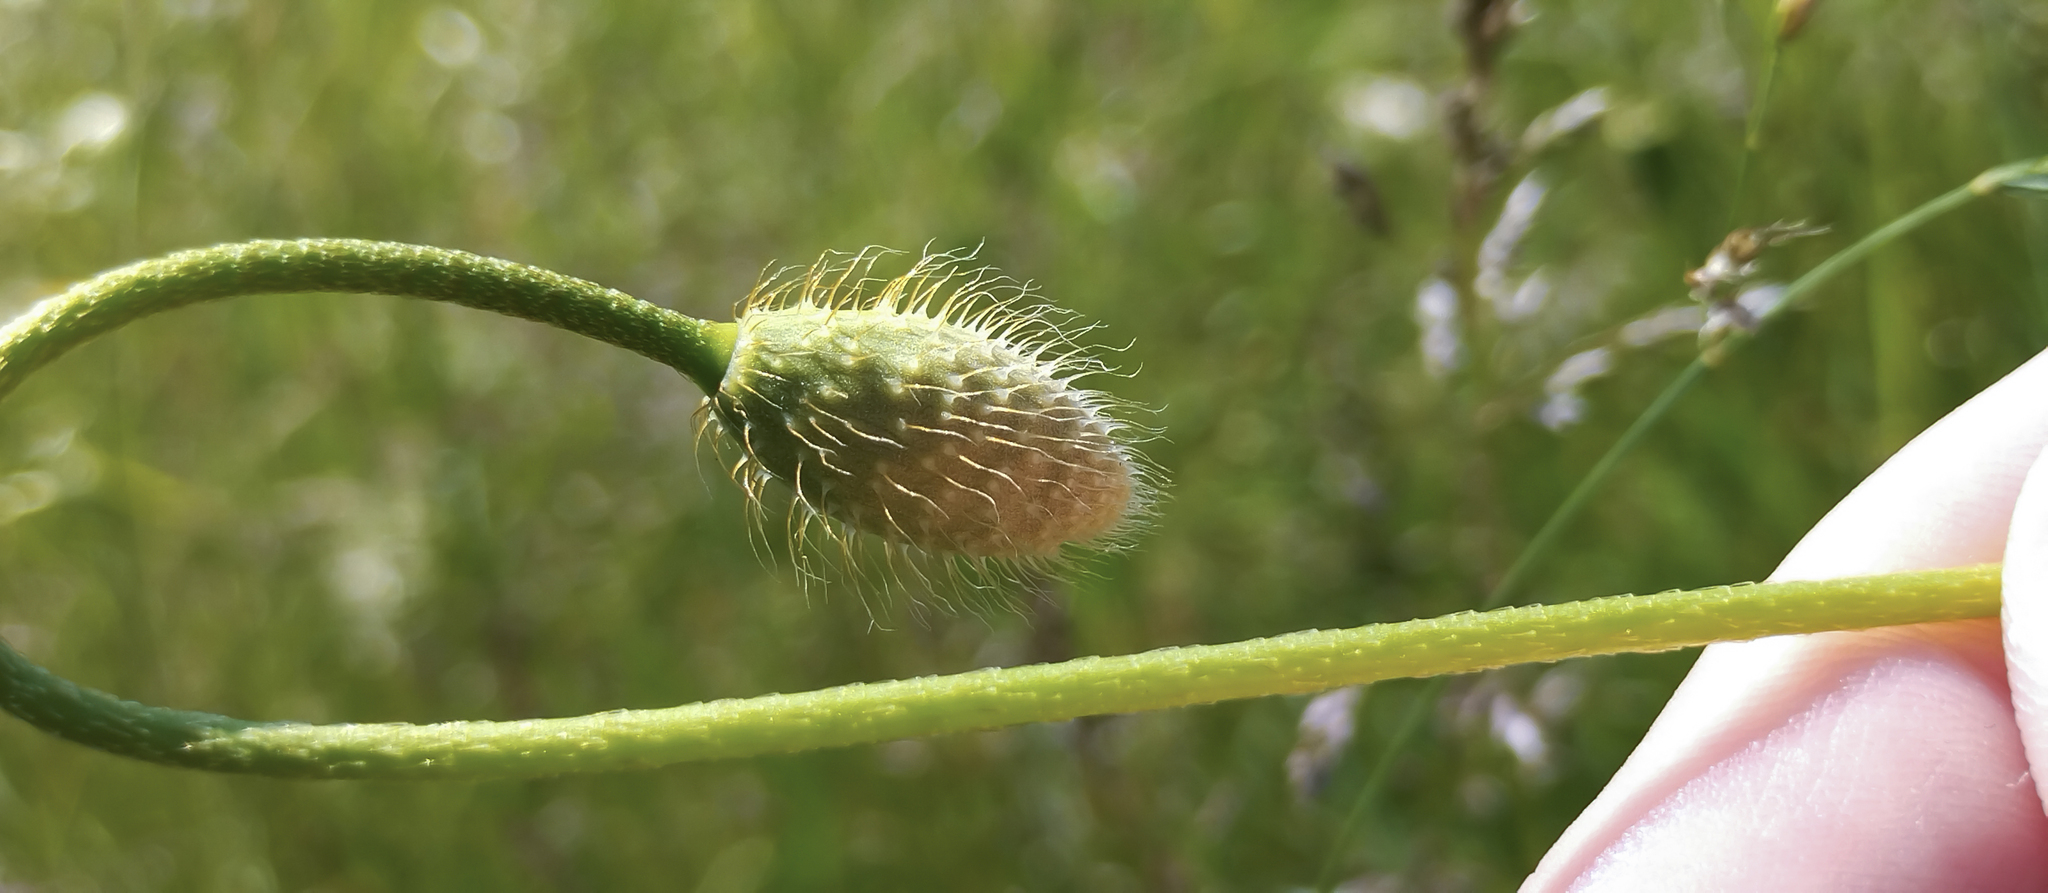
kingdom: Plantae
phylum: Tracheophyta
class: Magnoliopsida
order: Ranunculales
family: Papaveraceae
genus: Papaver
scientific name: Papaver lecoqii
